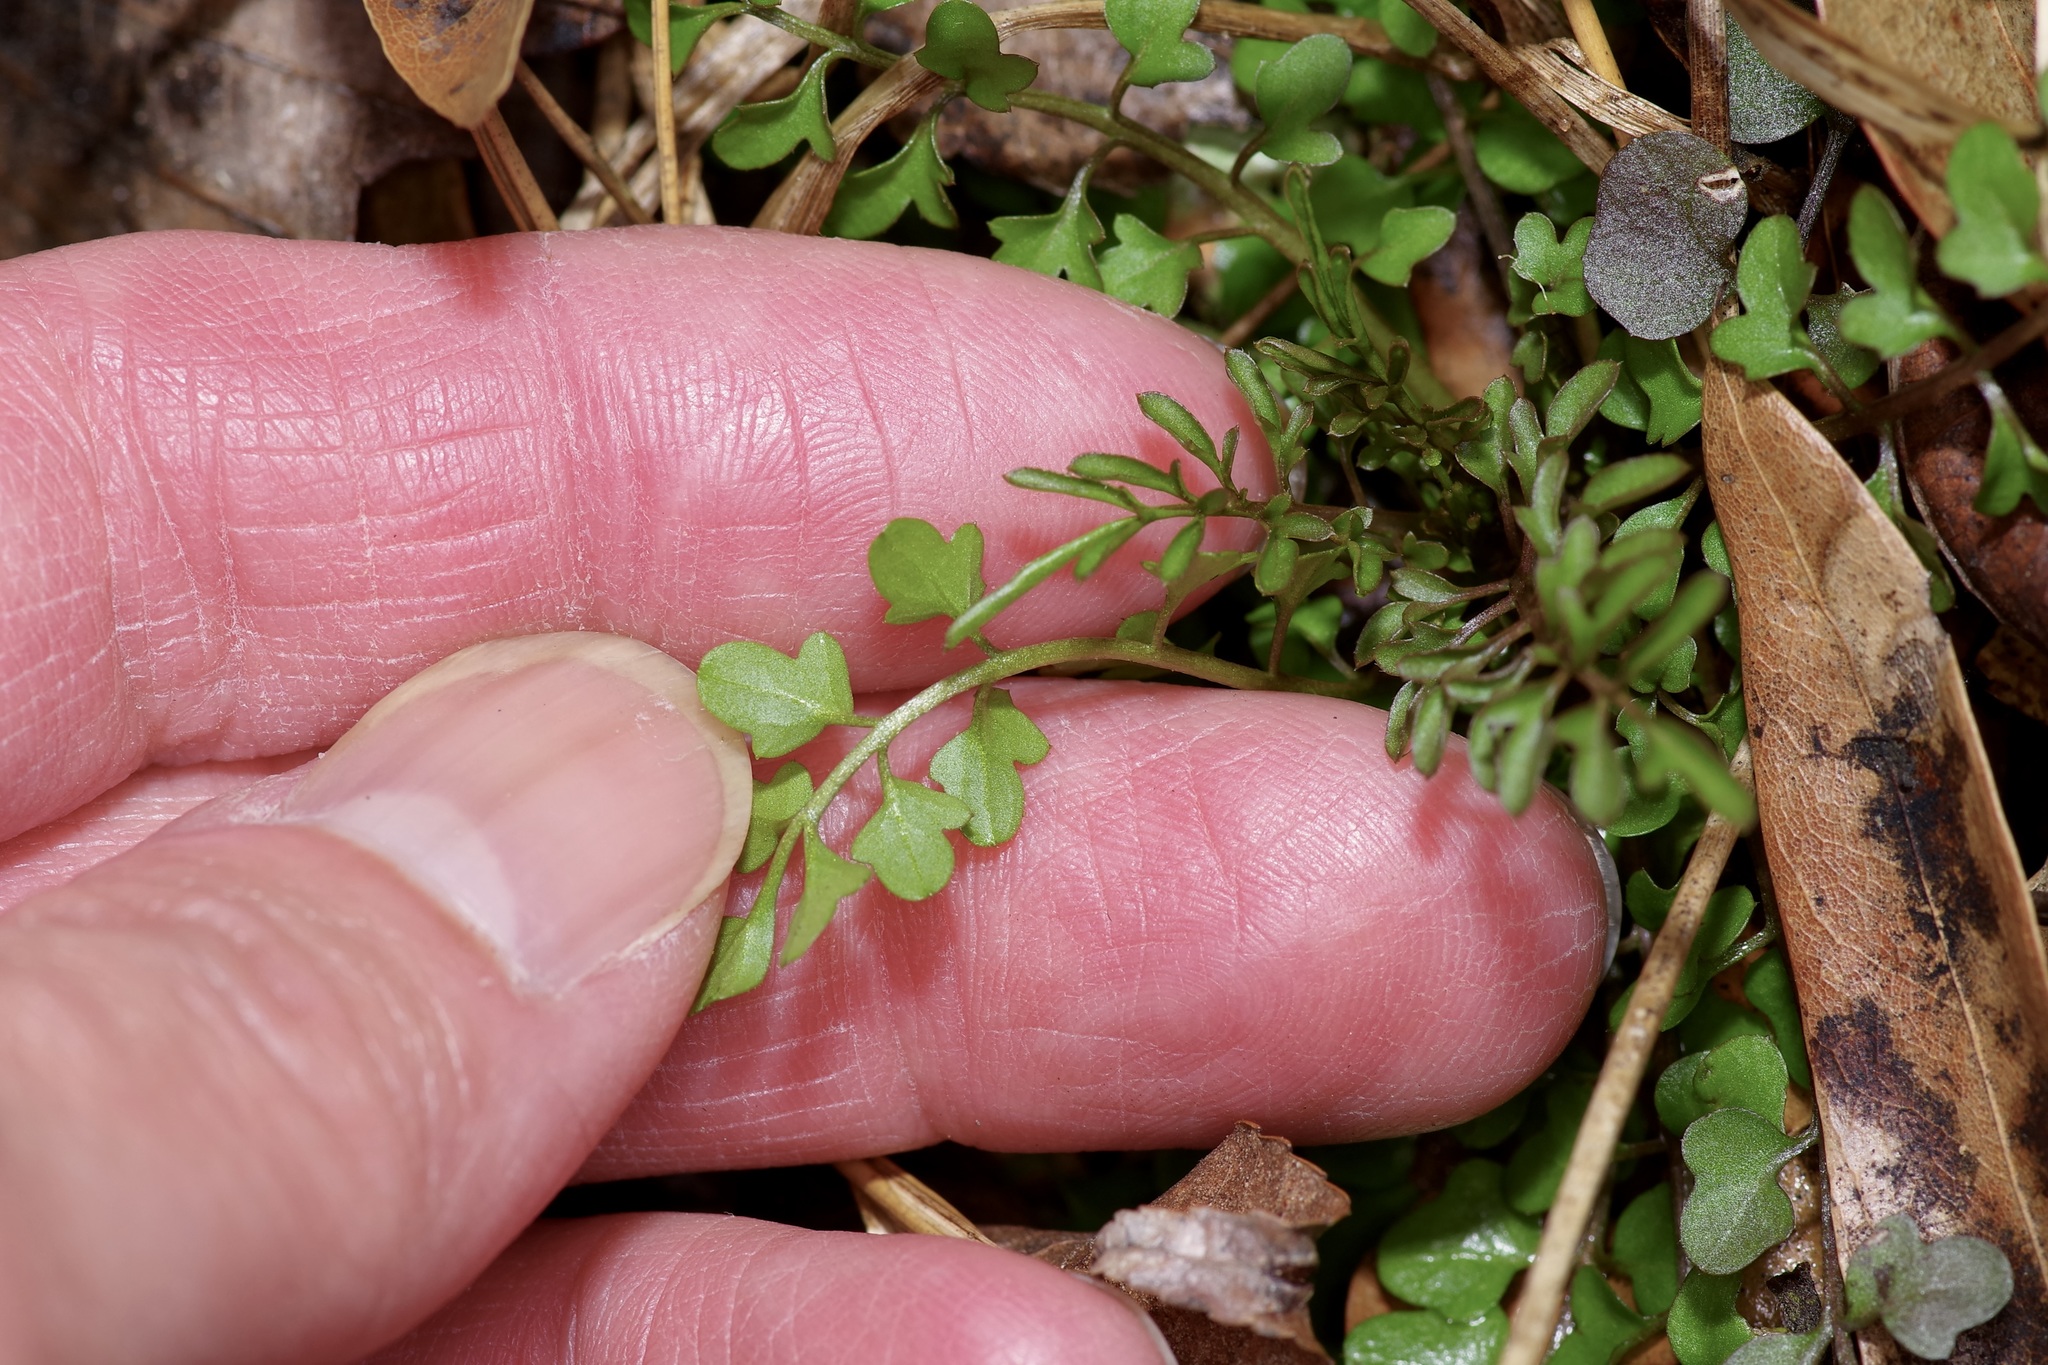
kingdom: Plantae
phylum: Tracheophyta
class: Magnoliopsida
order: Brassicales
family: Brassicaceae
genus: Cardamine
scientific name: Cardamine parviflora
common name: Sand bittercress
